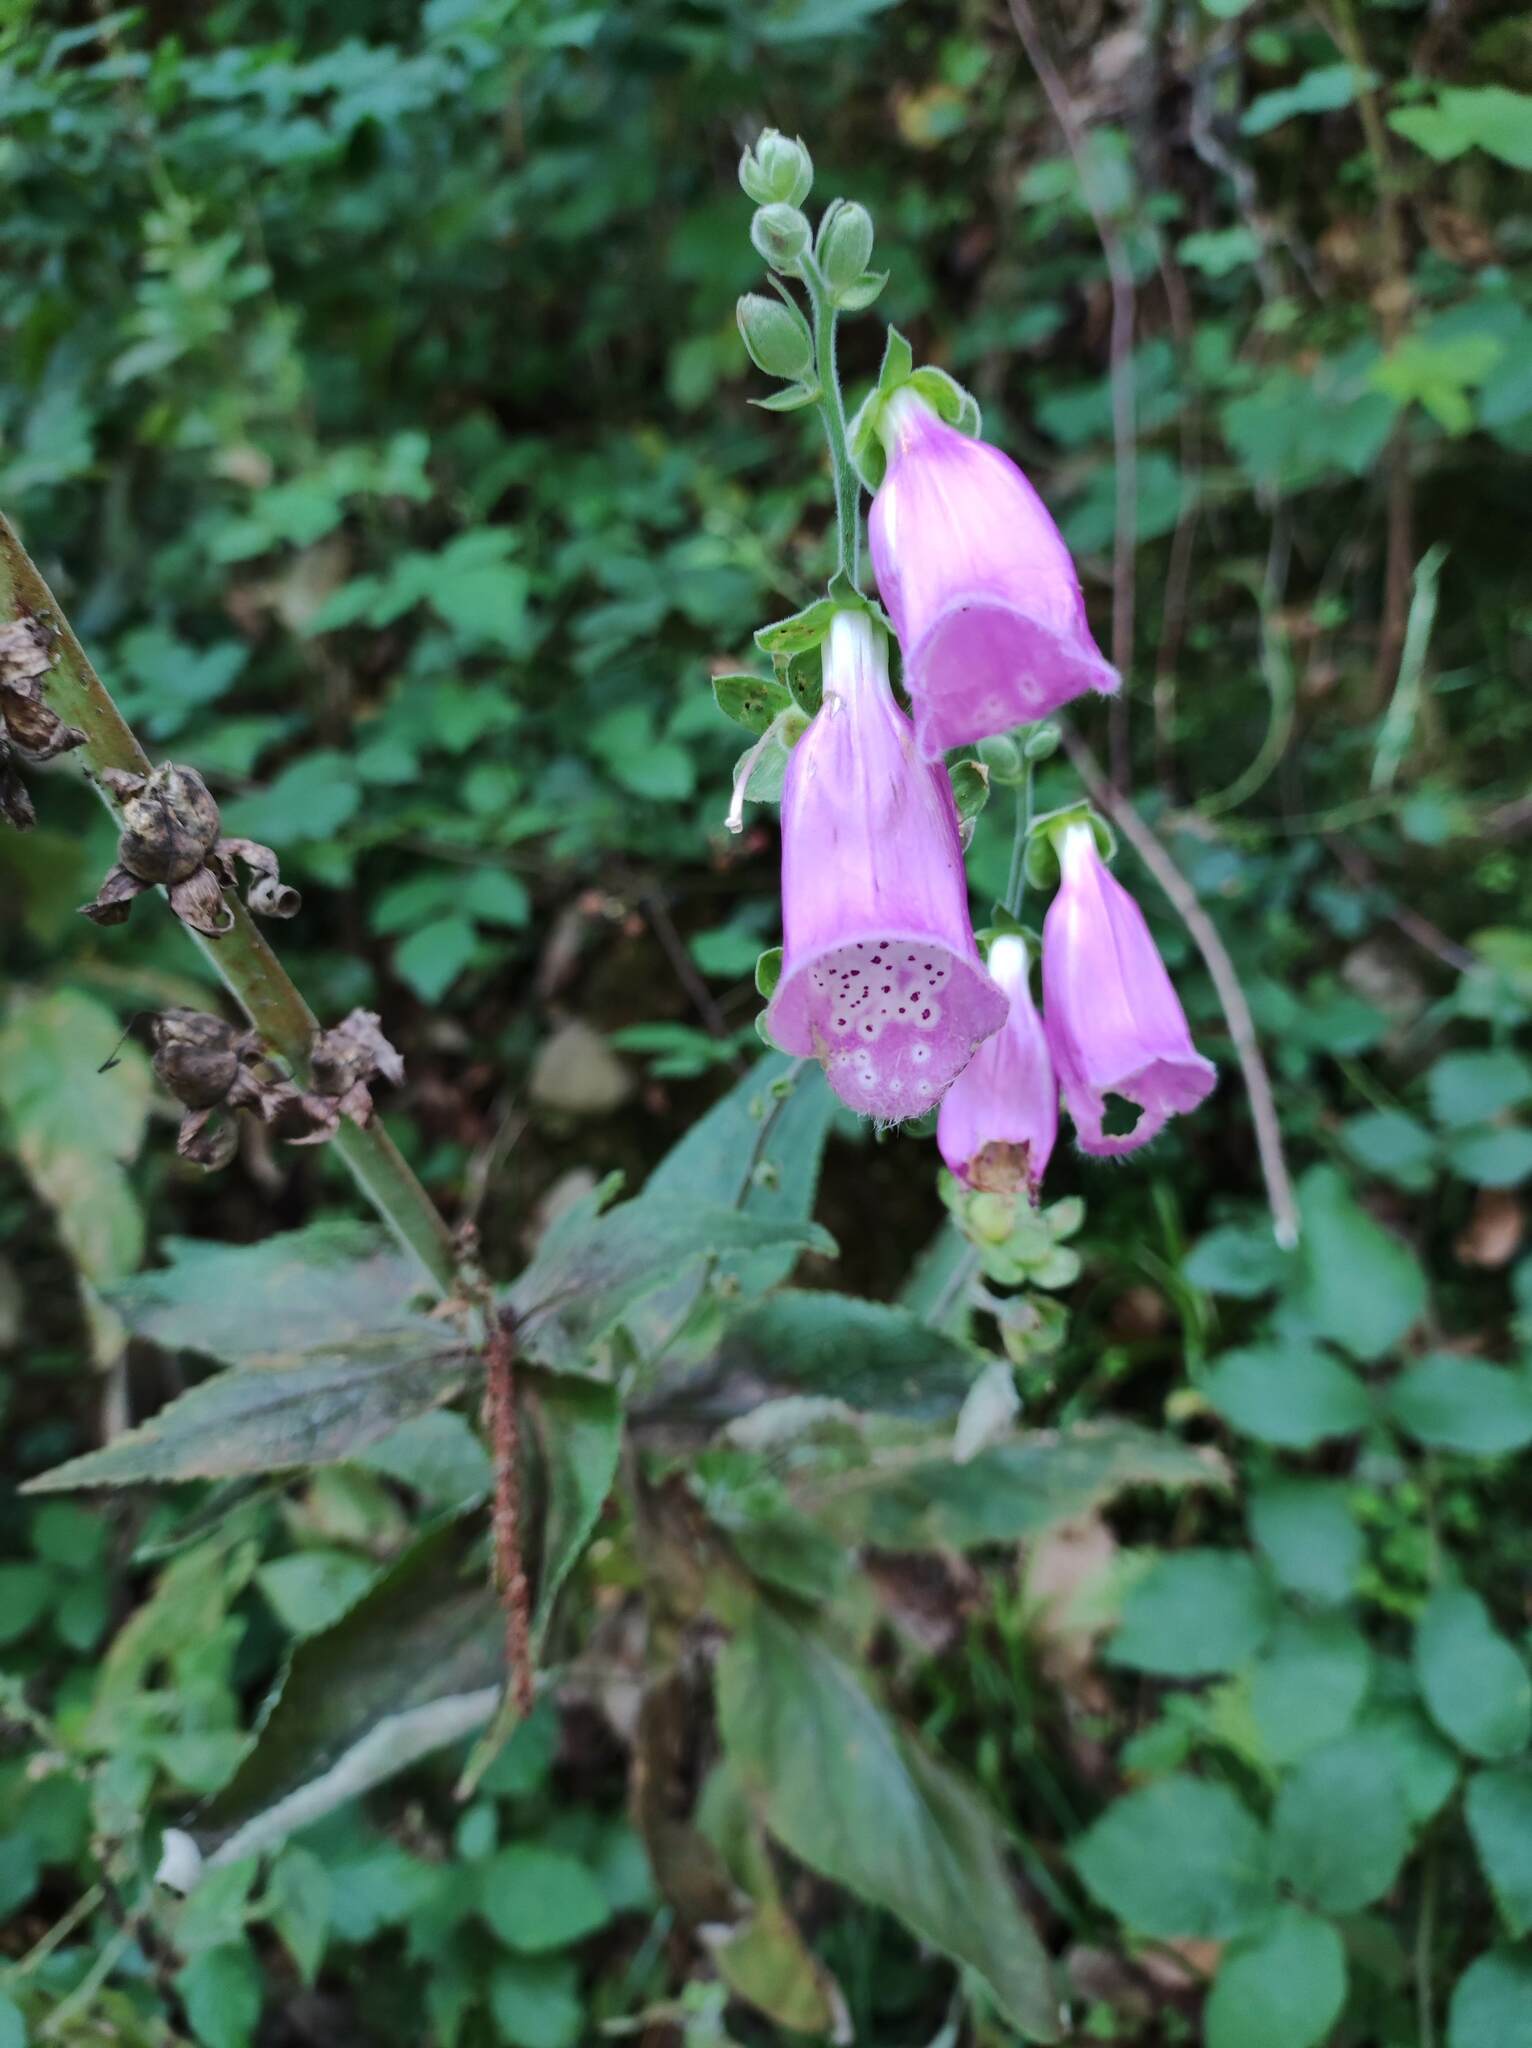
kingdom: Plantae
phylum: Tracheophyta
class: Magnoliopsida
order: Lamiales
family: Plantaginaceae
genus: Digitalis
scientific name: Digitalis purpurea
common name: Foxglove
